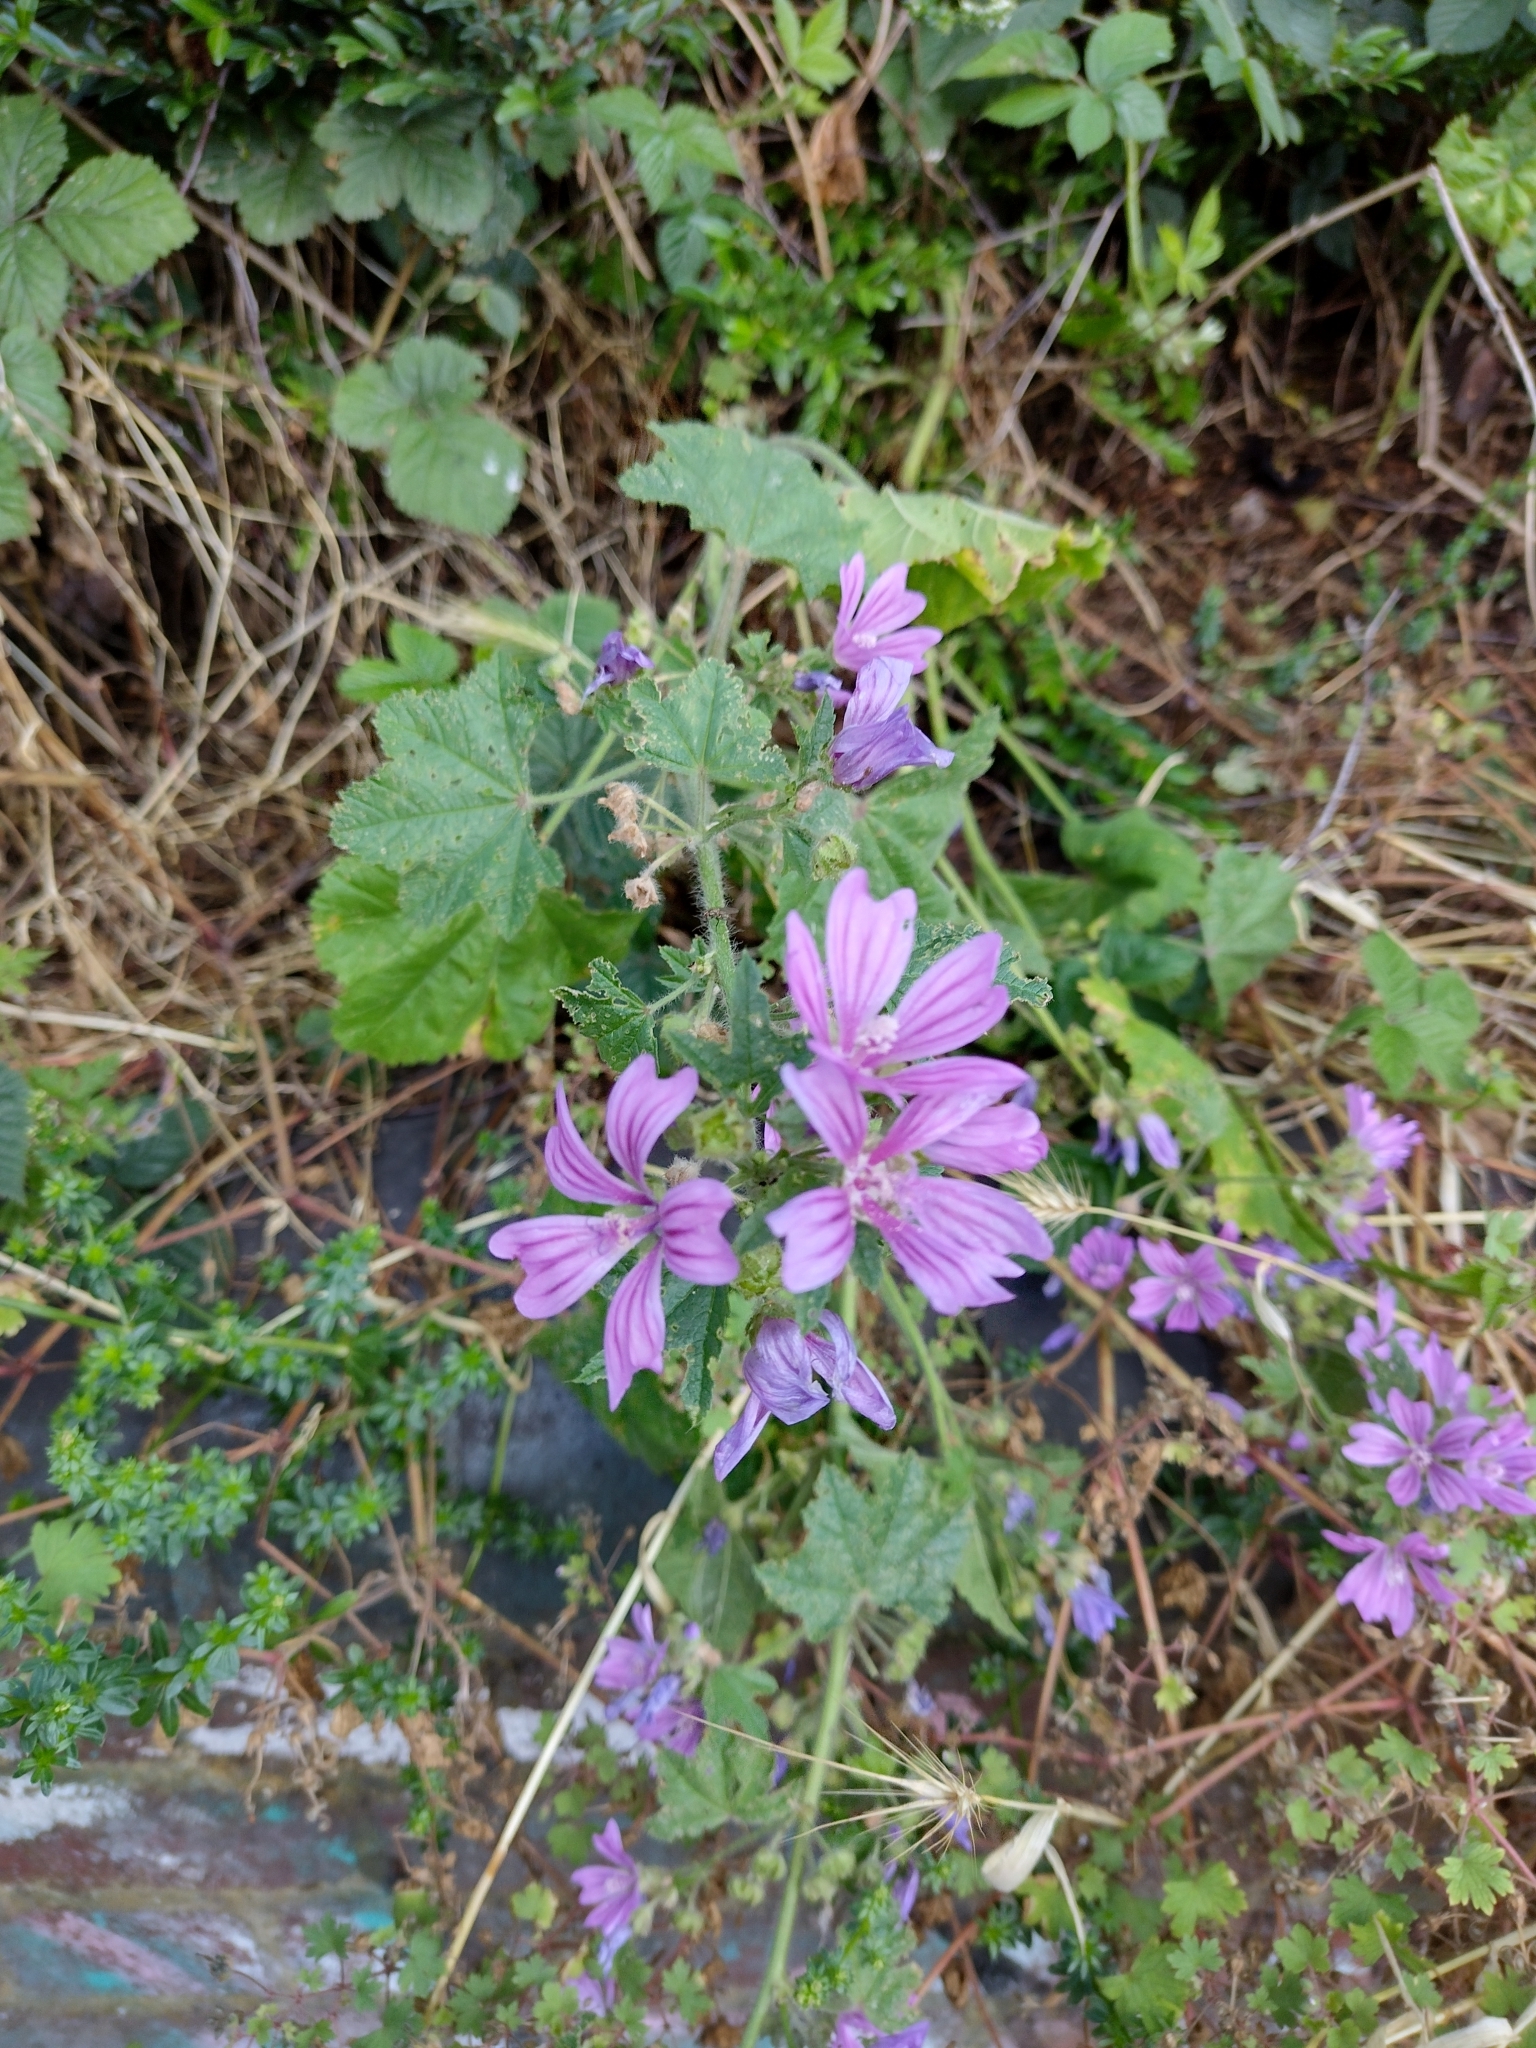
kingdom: Plantae
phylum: Tracheophyta
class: Magnoliopsida
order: Malvales
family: Malvaceae
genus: Malva
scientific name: Malva sylvestris
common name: Common mallow
